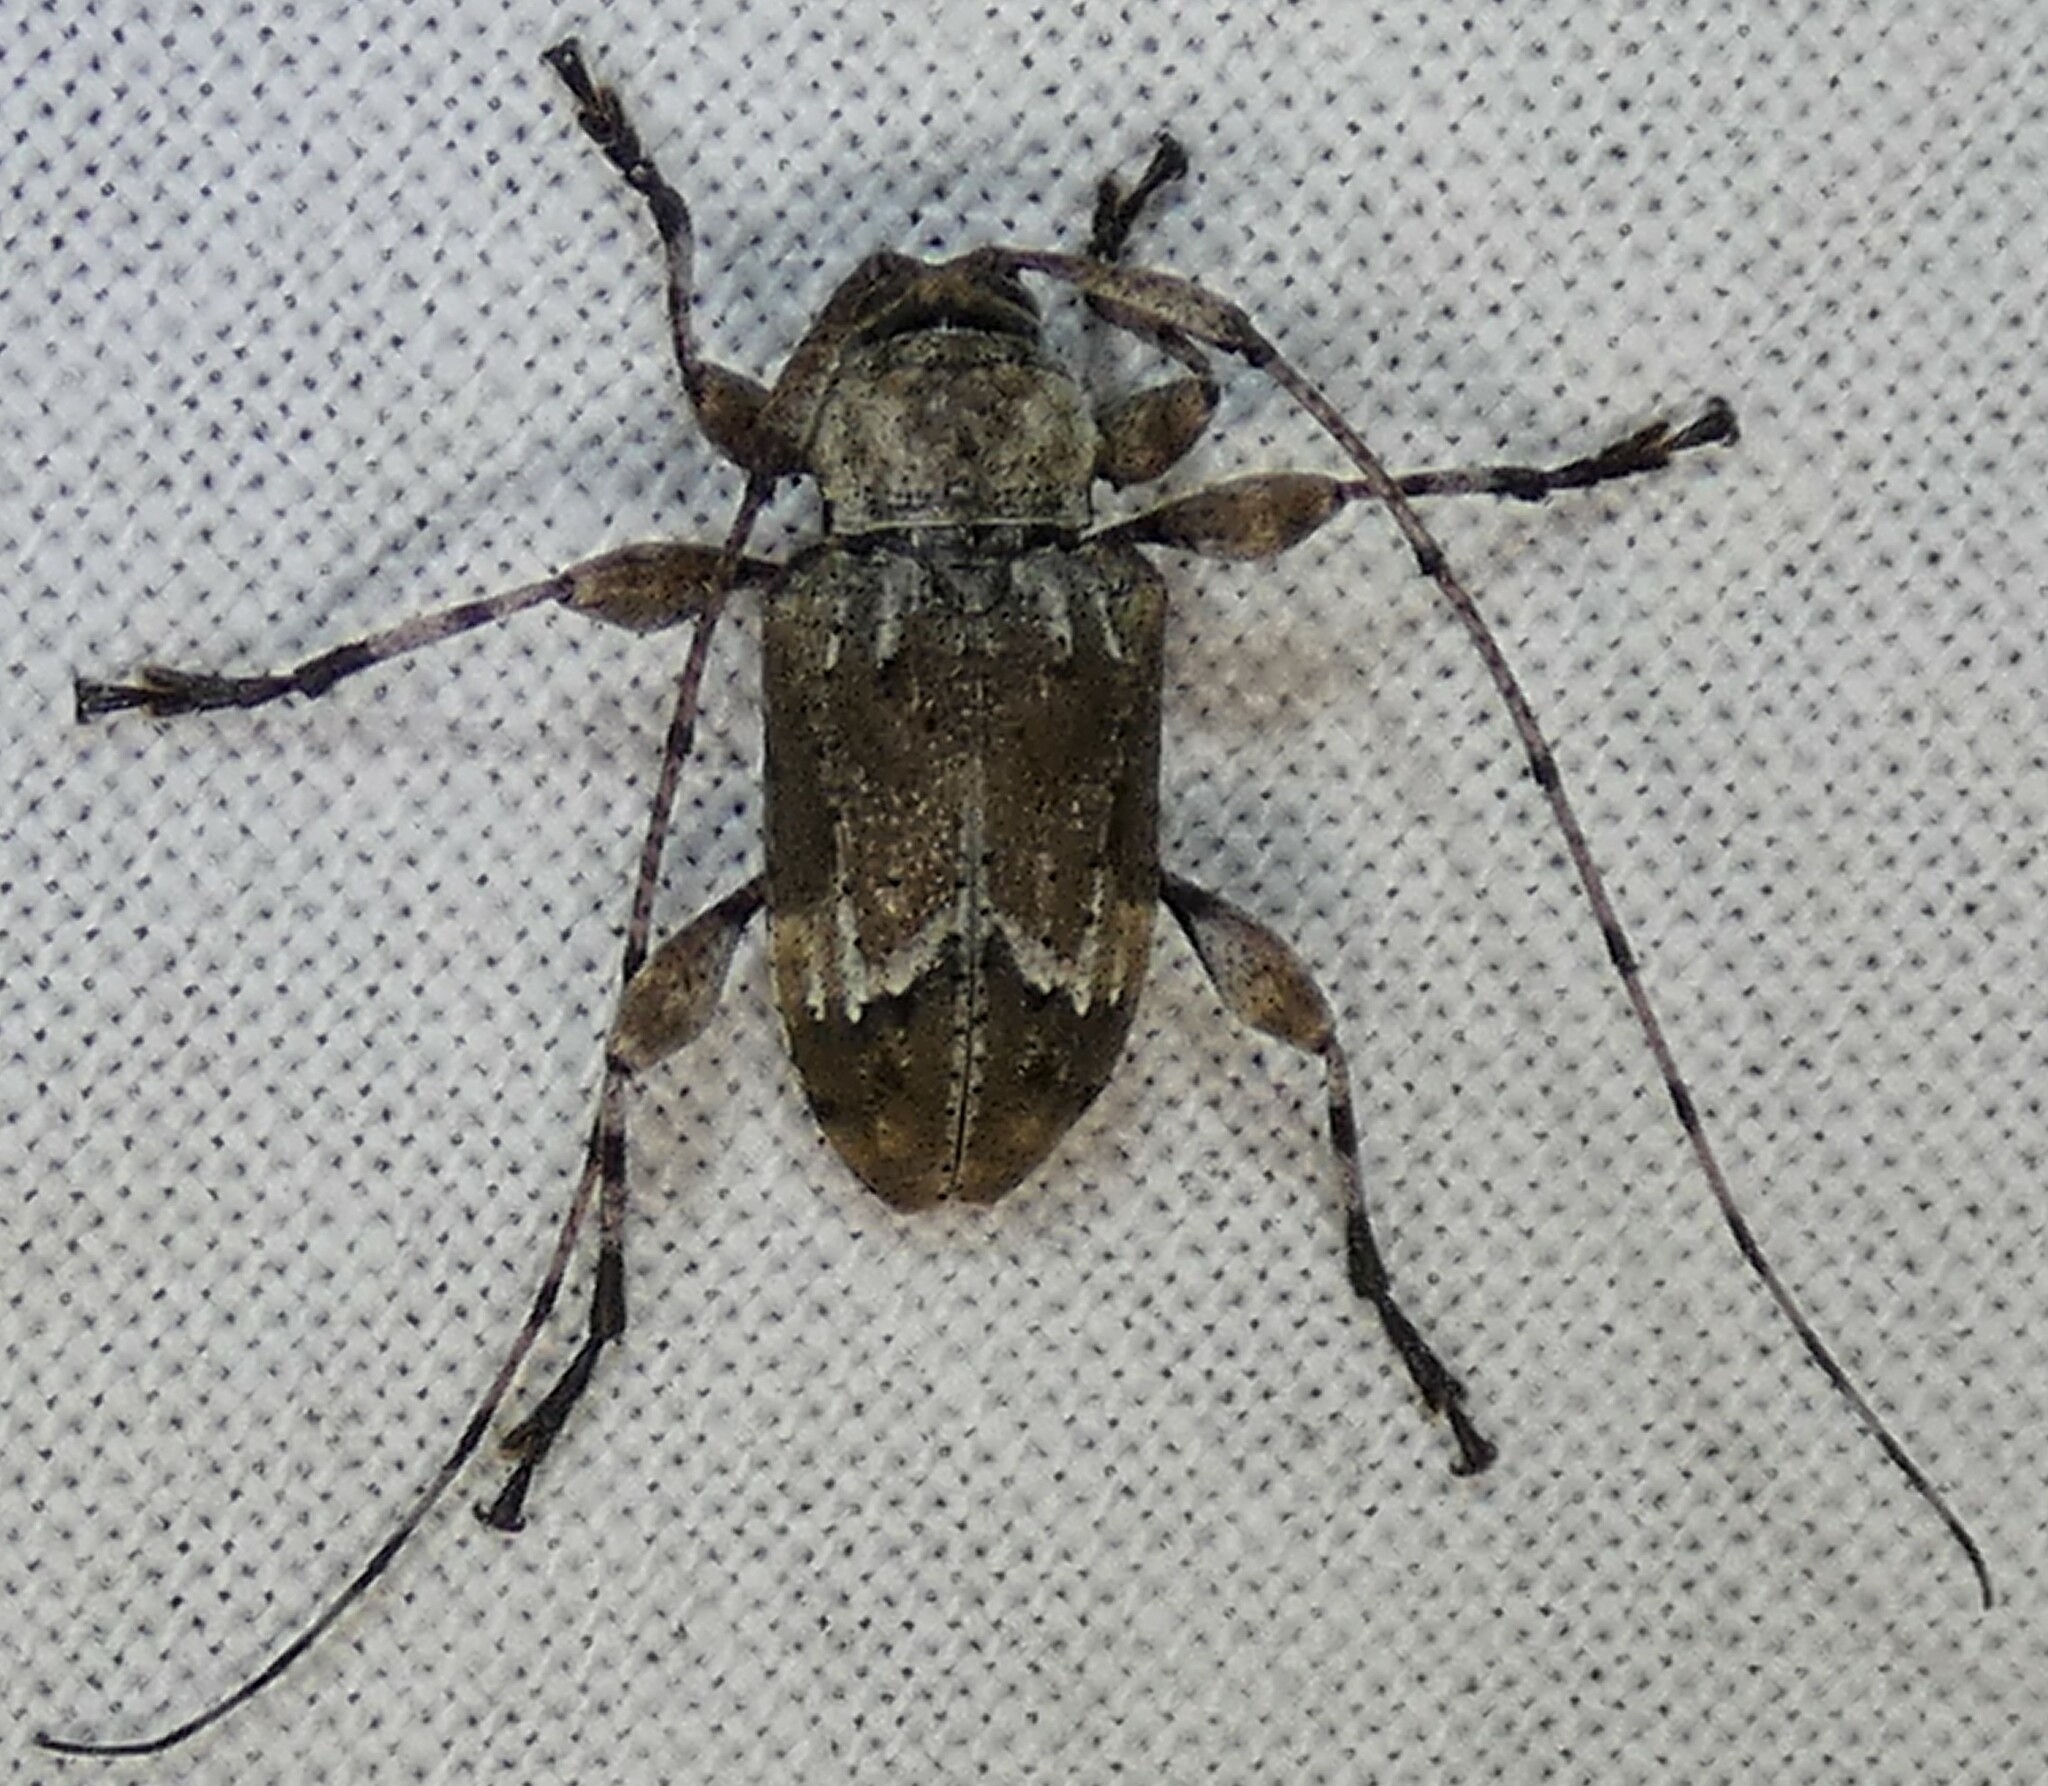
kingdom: Animalia
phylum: Arthropoda
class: Insecta
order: Coleoptera
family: Cerambycidae
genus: Leptostylopsis
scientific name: Leptostylopsis planidorsus
